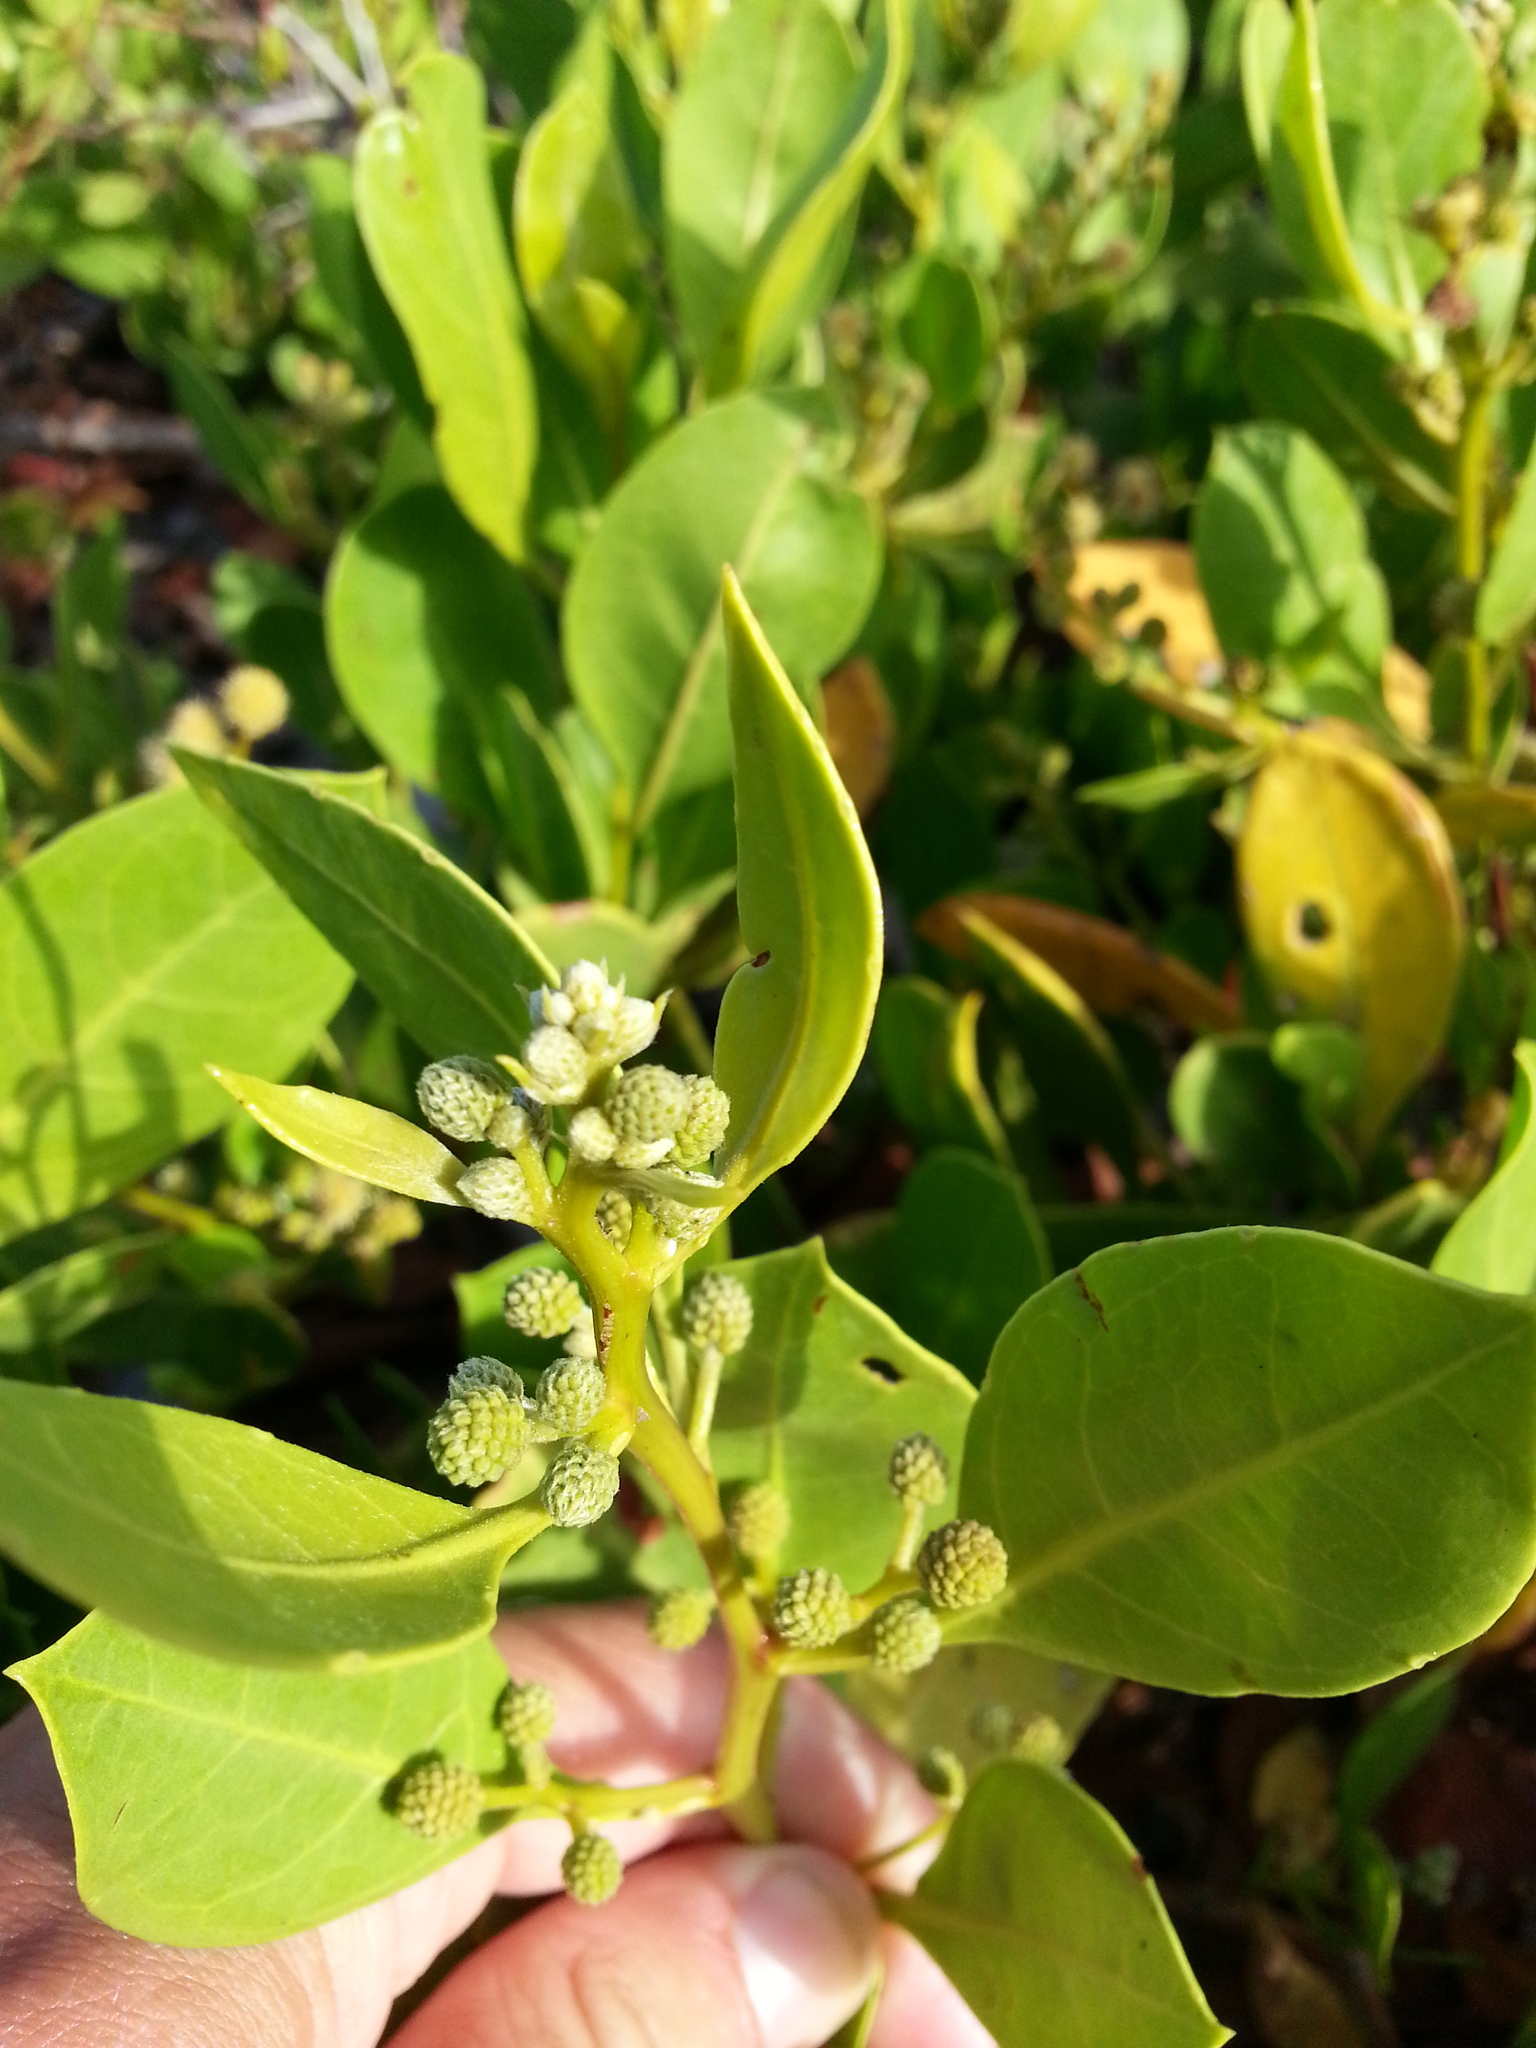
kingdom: Plantae
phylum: Tracheophyta
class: Magnoliopsida
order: Myrtales
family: Combretaceae
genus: Conocarpus
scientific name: Conocarpus erectus
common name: Button mangrove
